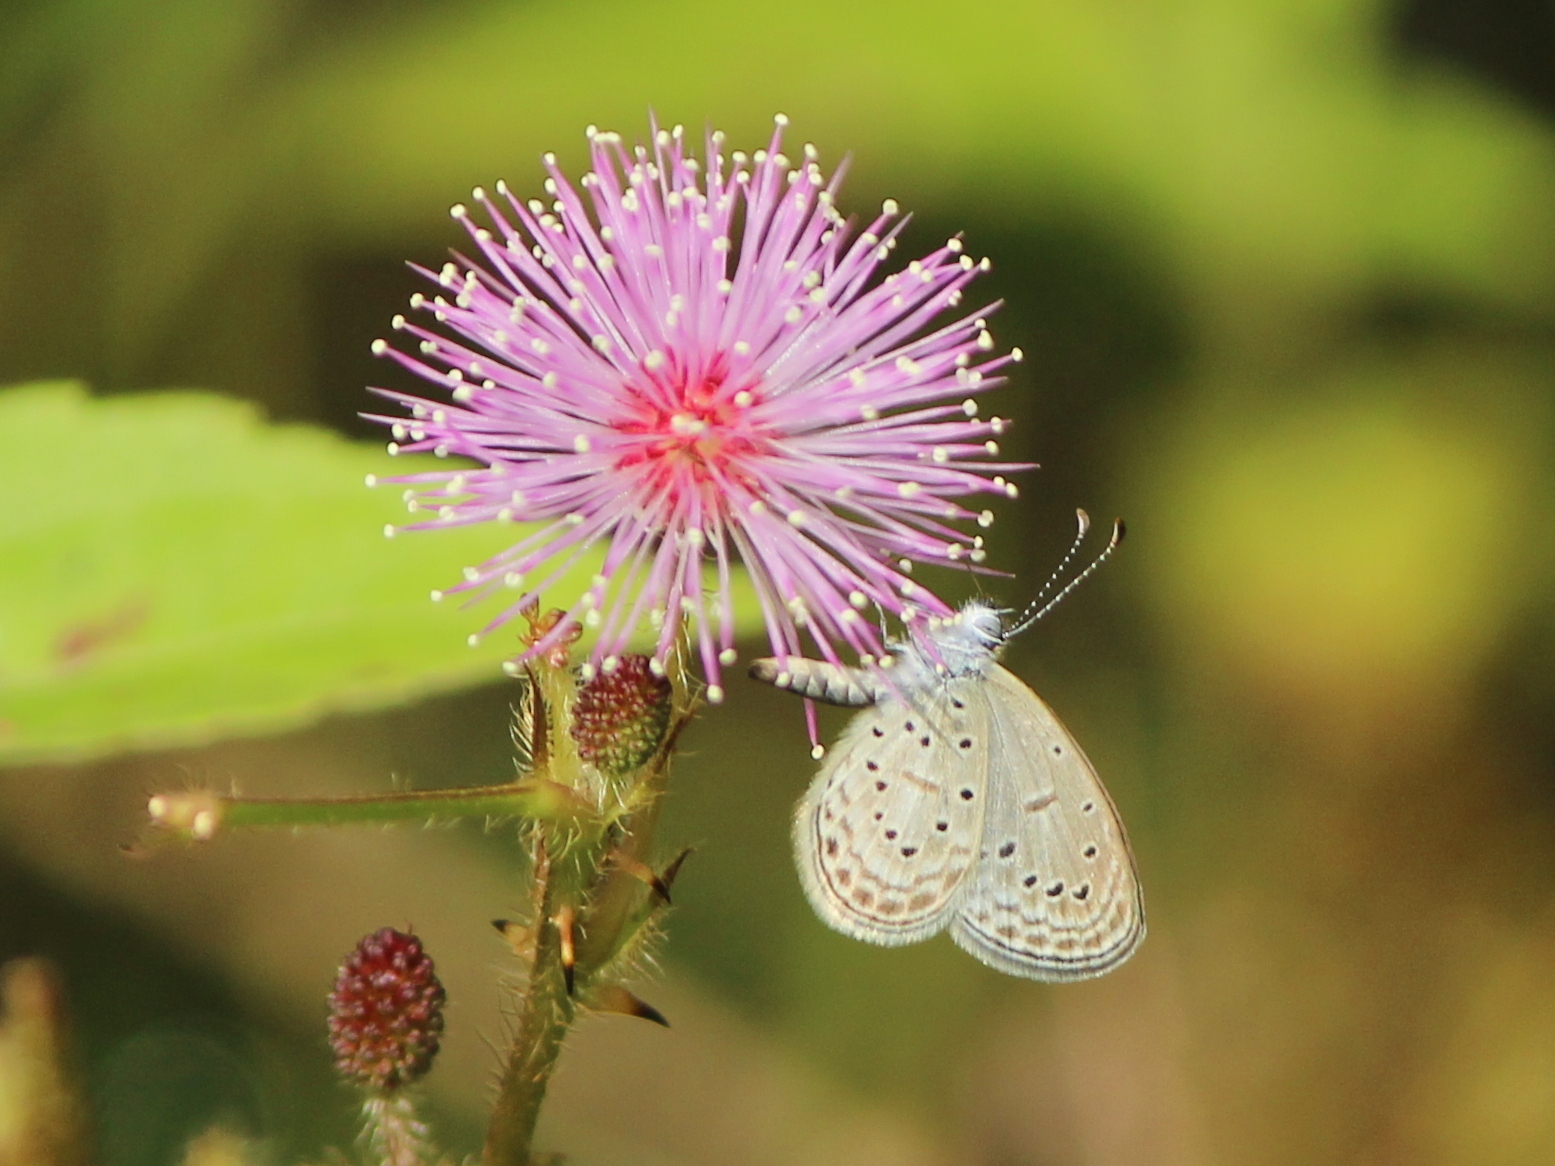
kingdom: Animalia
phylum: Arthropoda
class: Insecta
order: Lepidoptera
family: Lycaenidae
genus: Zizula
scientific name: Zizula hylax
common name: Gaika blue
